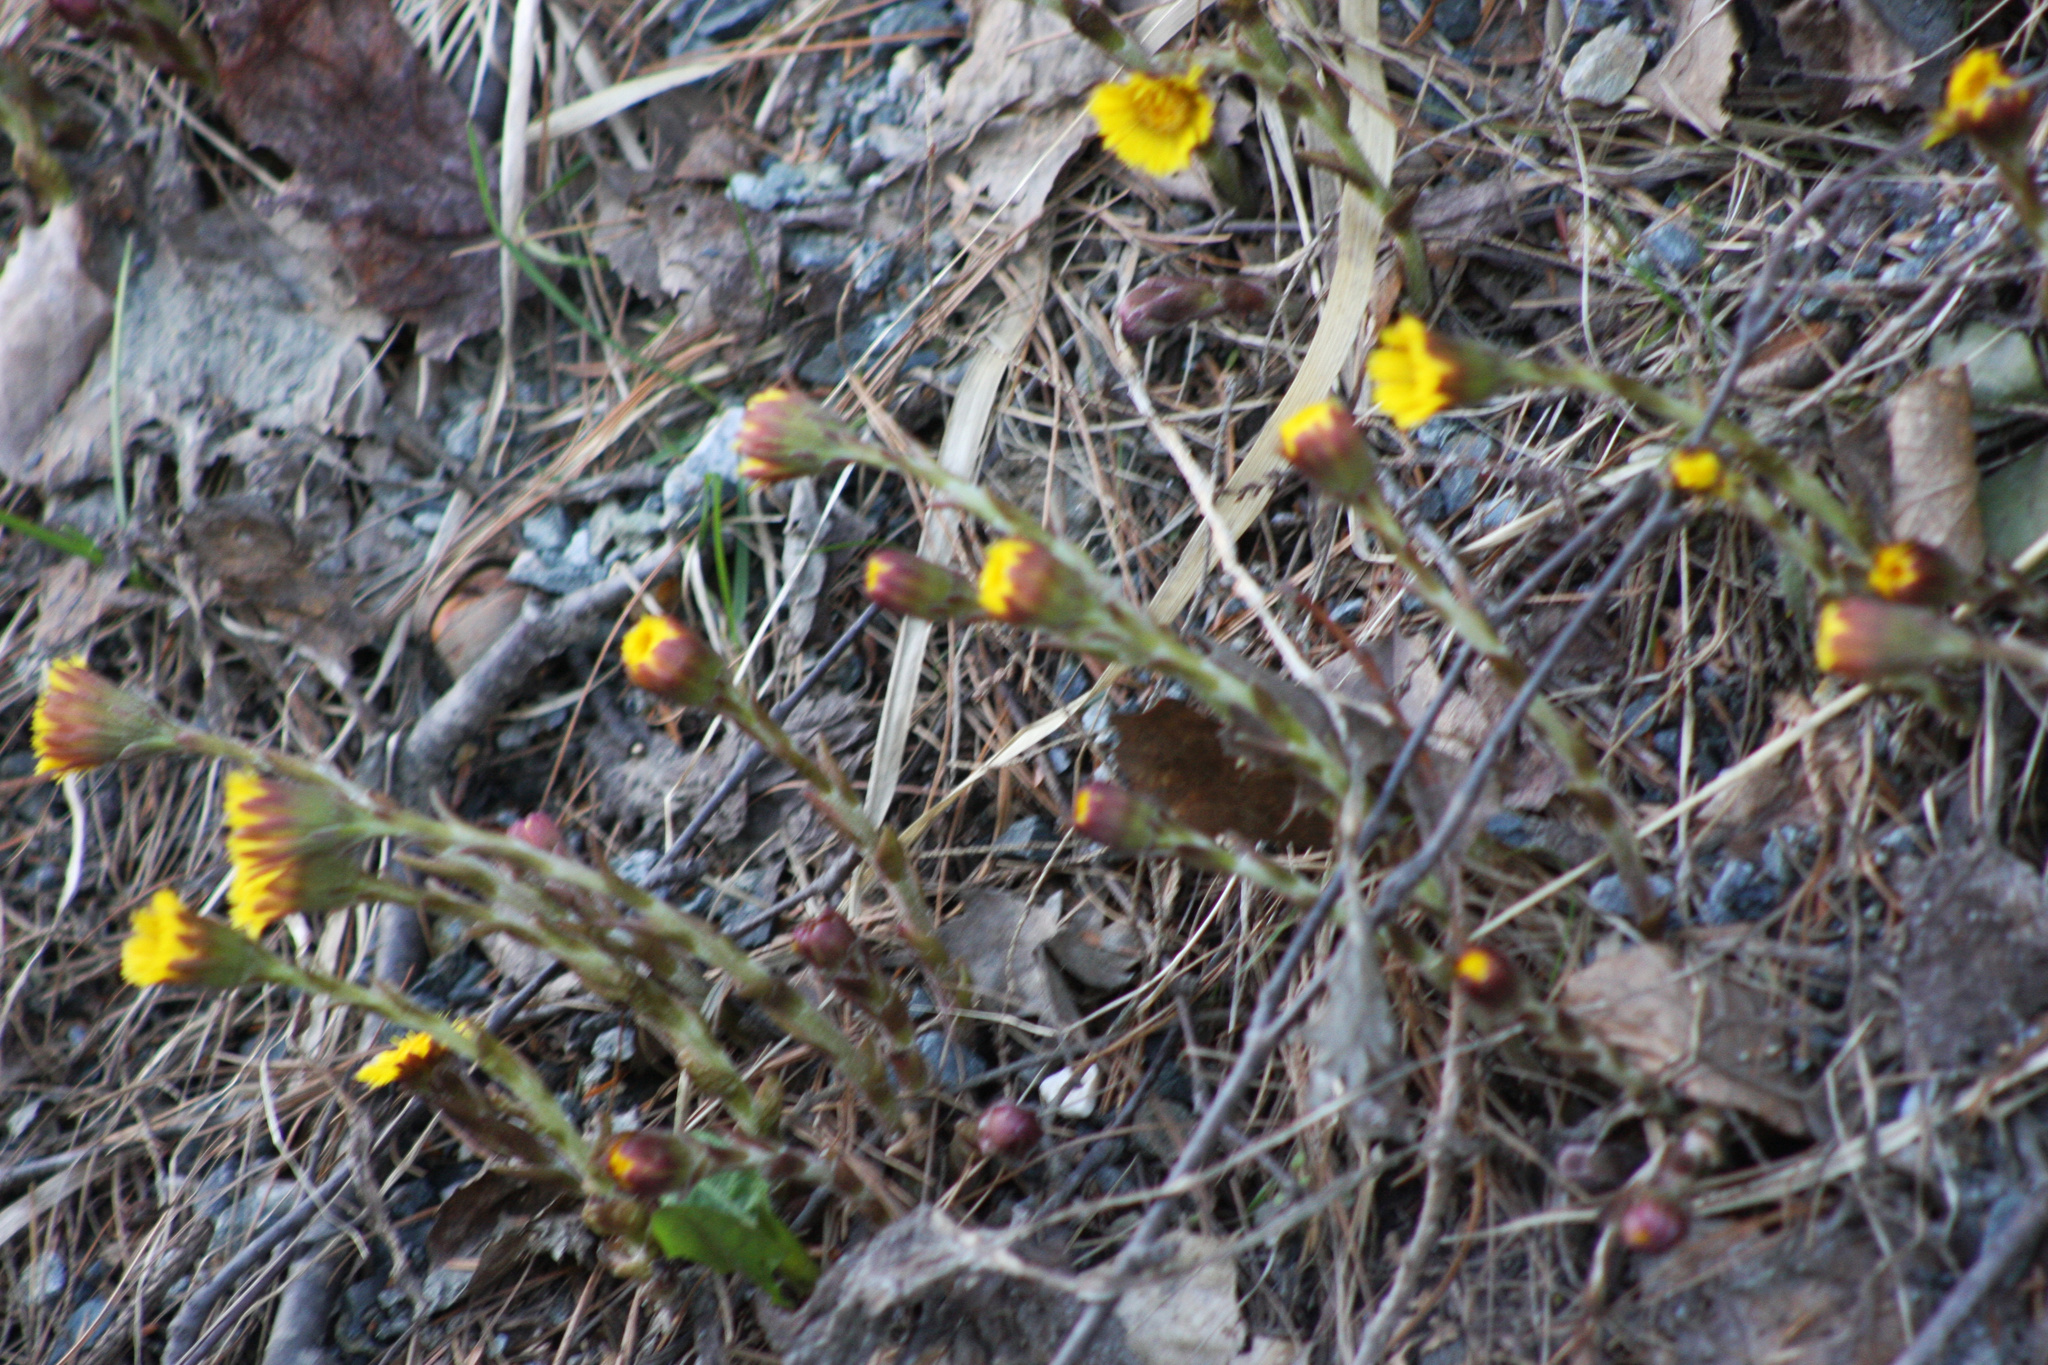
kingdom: Plantae
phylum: Tracheophyta
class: Magnoliopsida
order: Asterales
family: Asteraceae
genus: Tussilago
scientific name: Tussilago farfara
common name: Coltsfoot
